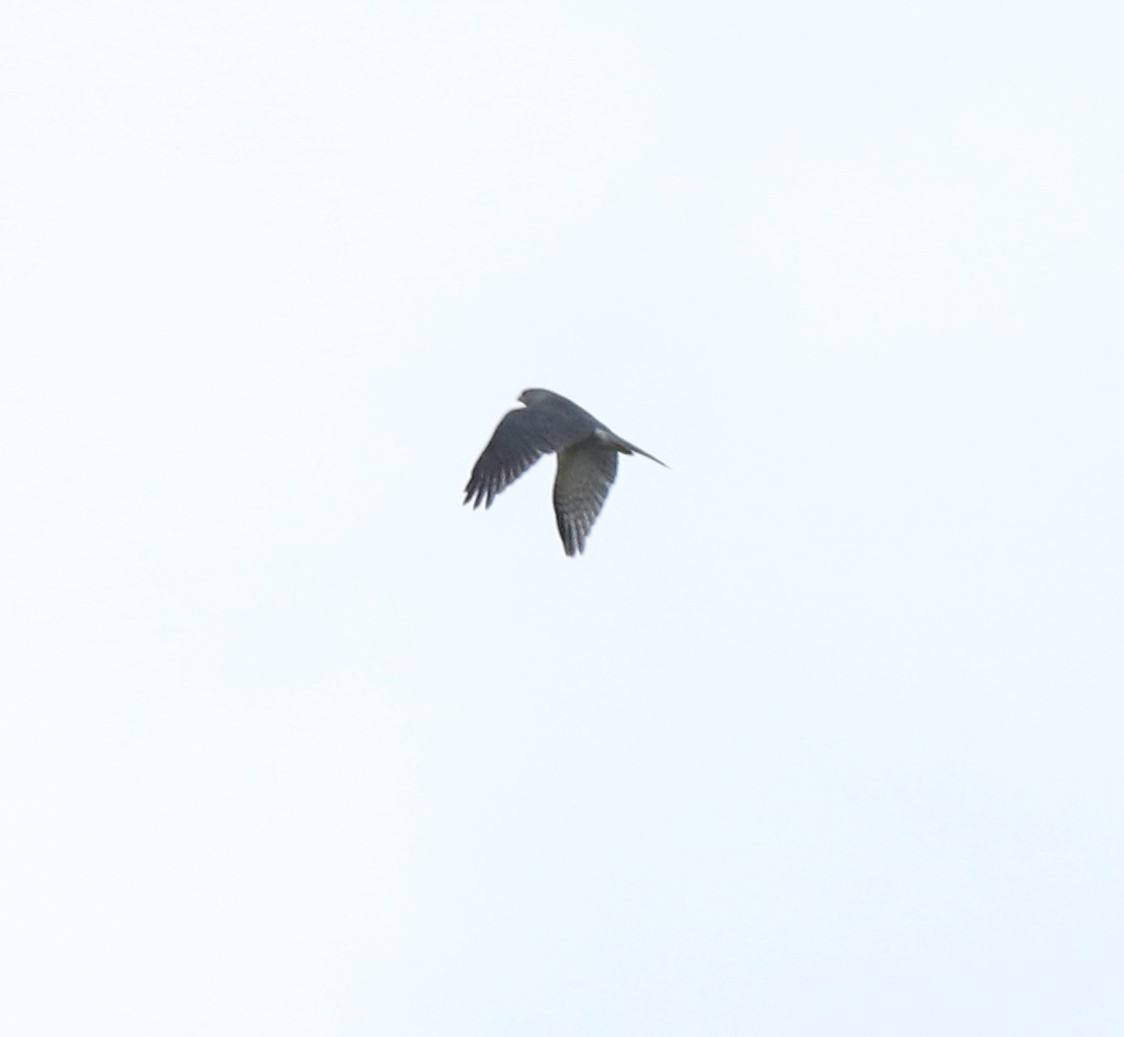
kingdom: Animalia
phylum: Chordata
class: Aves
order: Accipitriformes
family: Accipitridae
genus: Accipiter
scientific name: Accipiter badius
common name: Shikra
